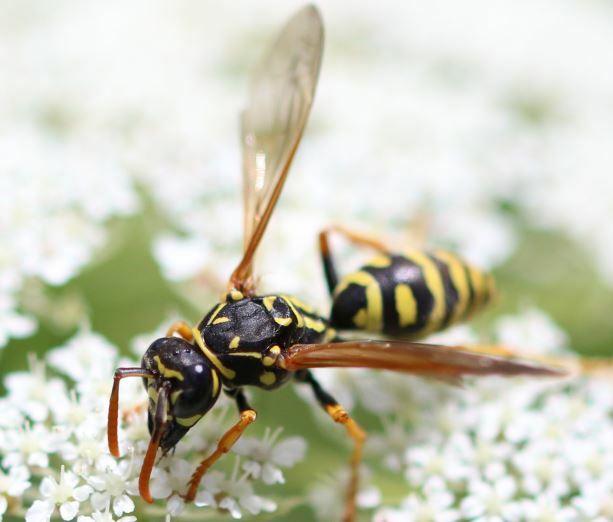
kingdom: Animalia
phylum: Arthropoda
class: Insecta
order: Hymenoptera
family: Eumenidae
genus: Polistes
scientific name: Polistes dominula
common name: Paper wasp
